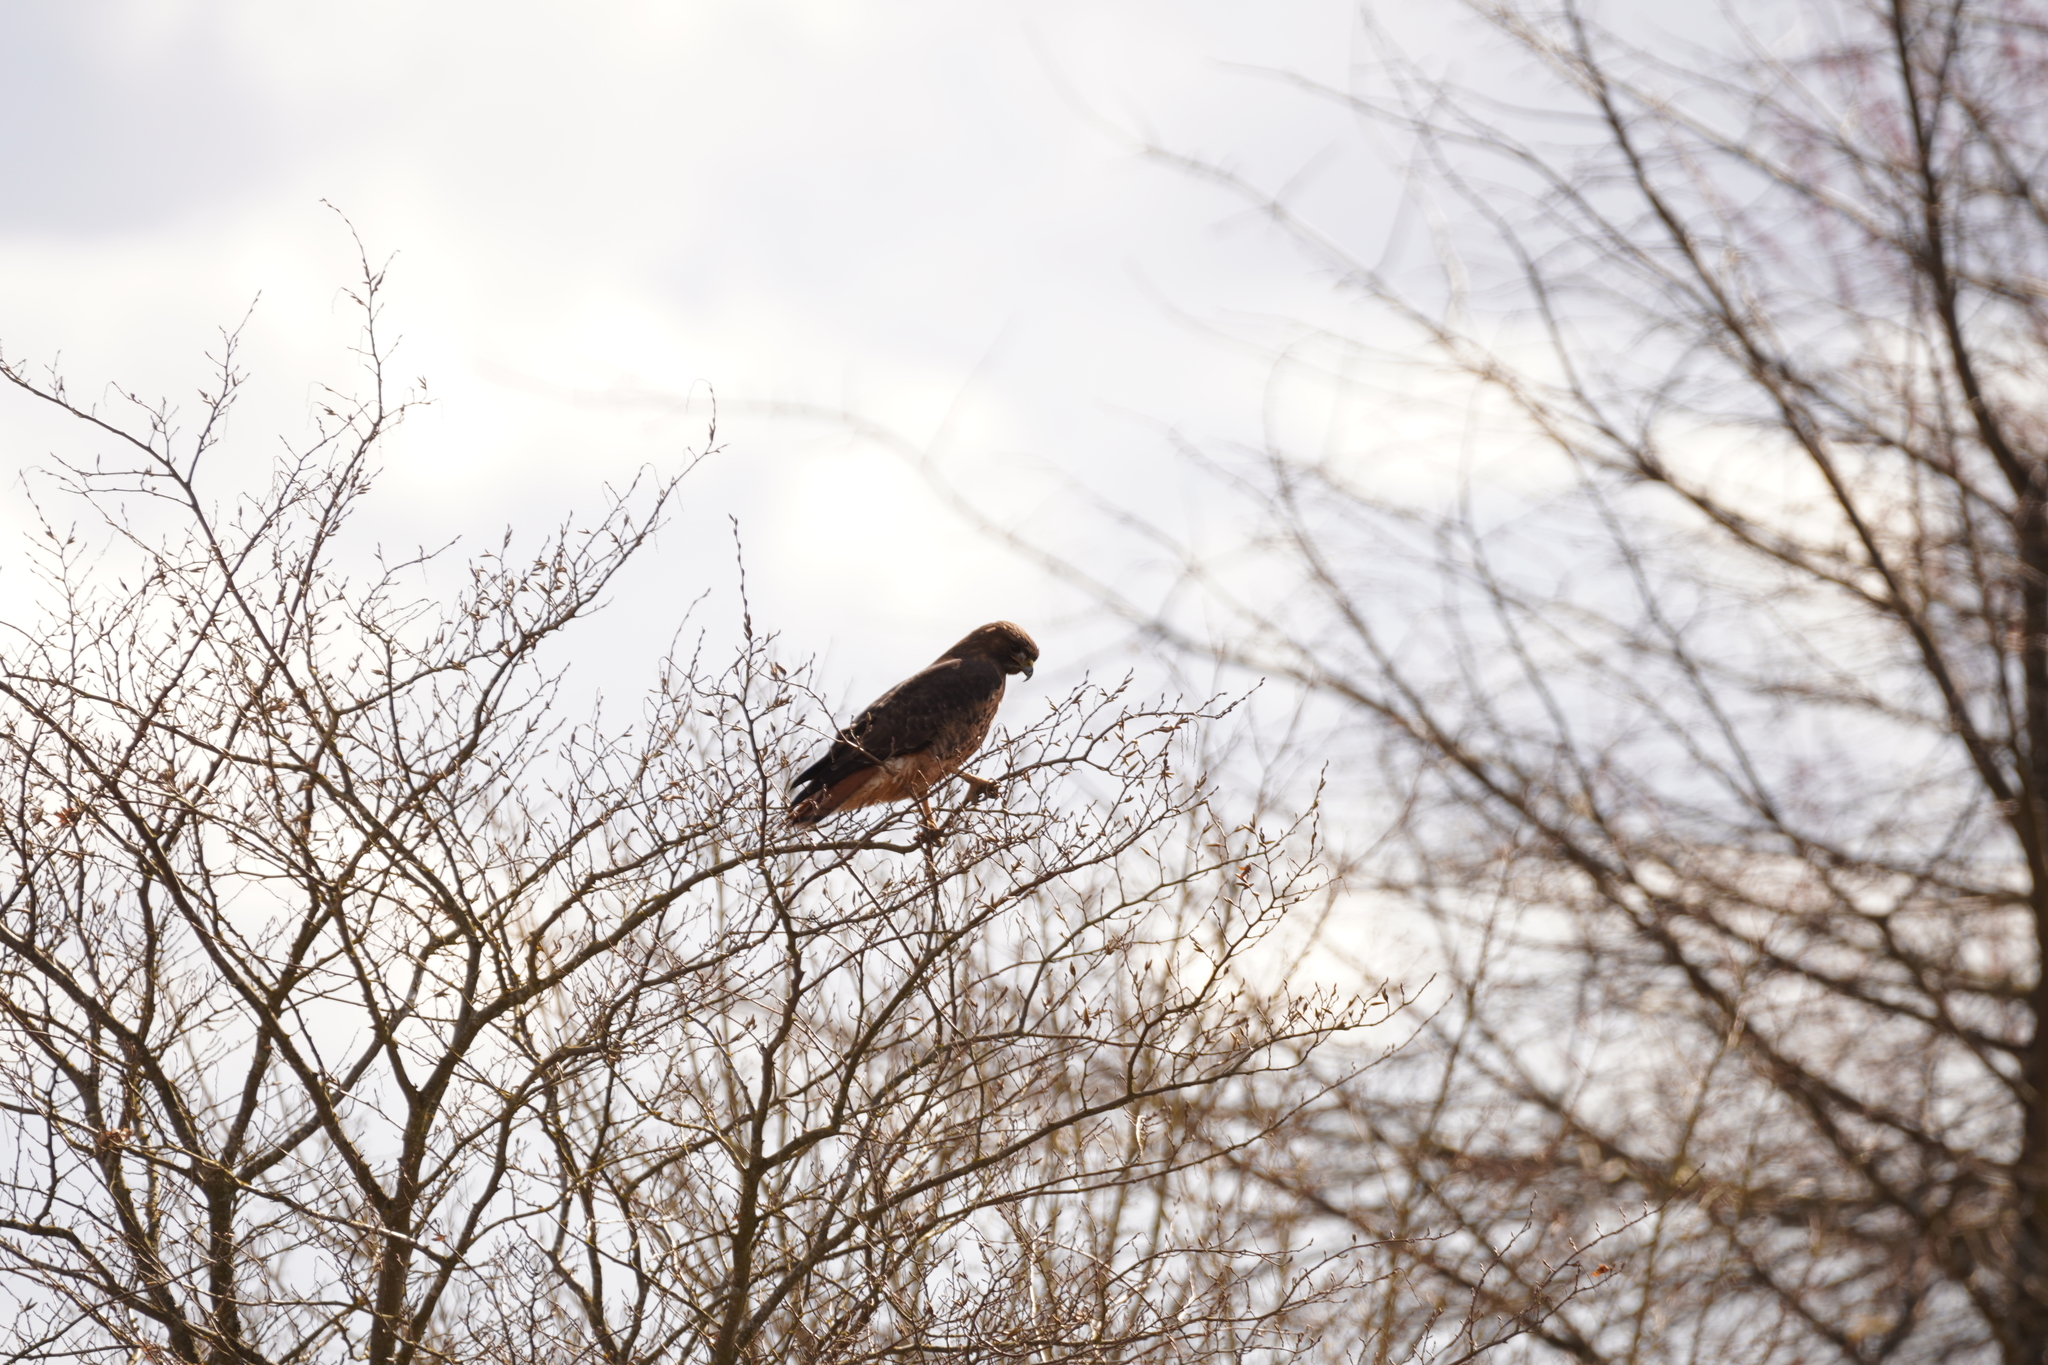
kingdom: Animalia
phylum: Chordata
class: Aves
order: Accipitriformes
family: Accipitridae
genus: Buteo
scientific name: Buteo jamaicensis
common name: Red-tailed hawk
